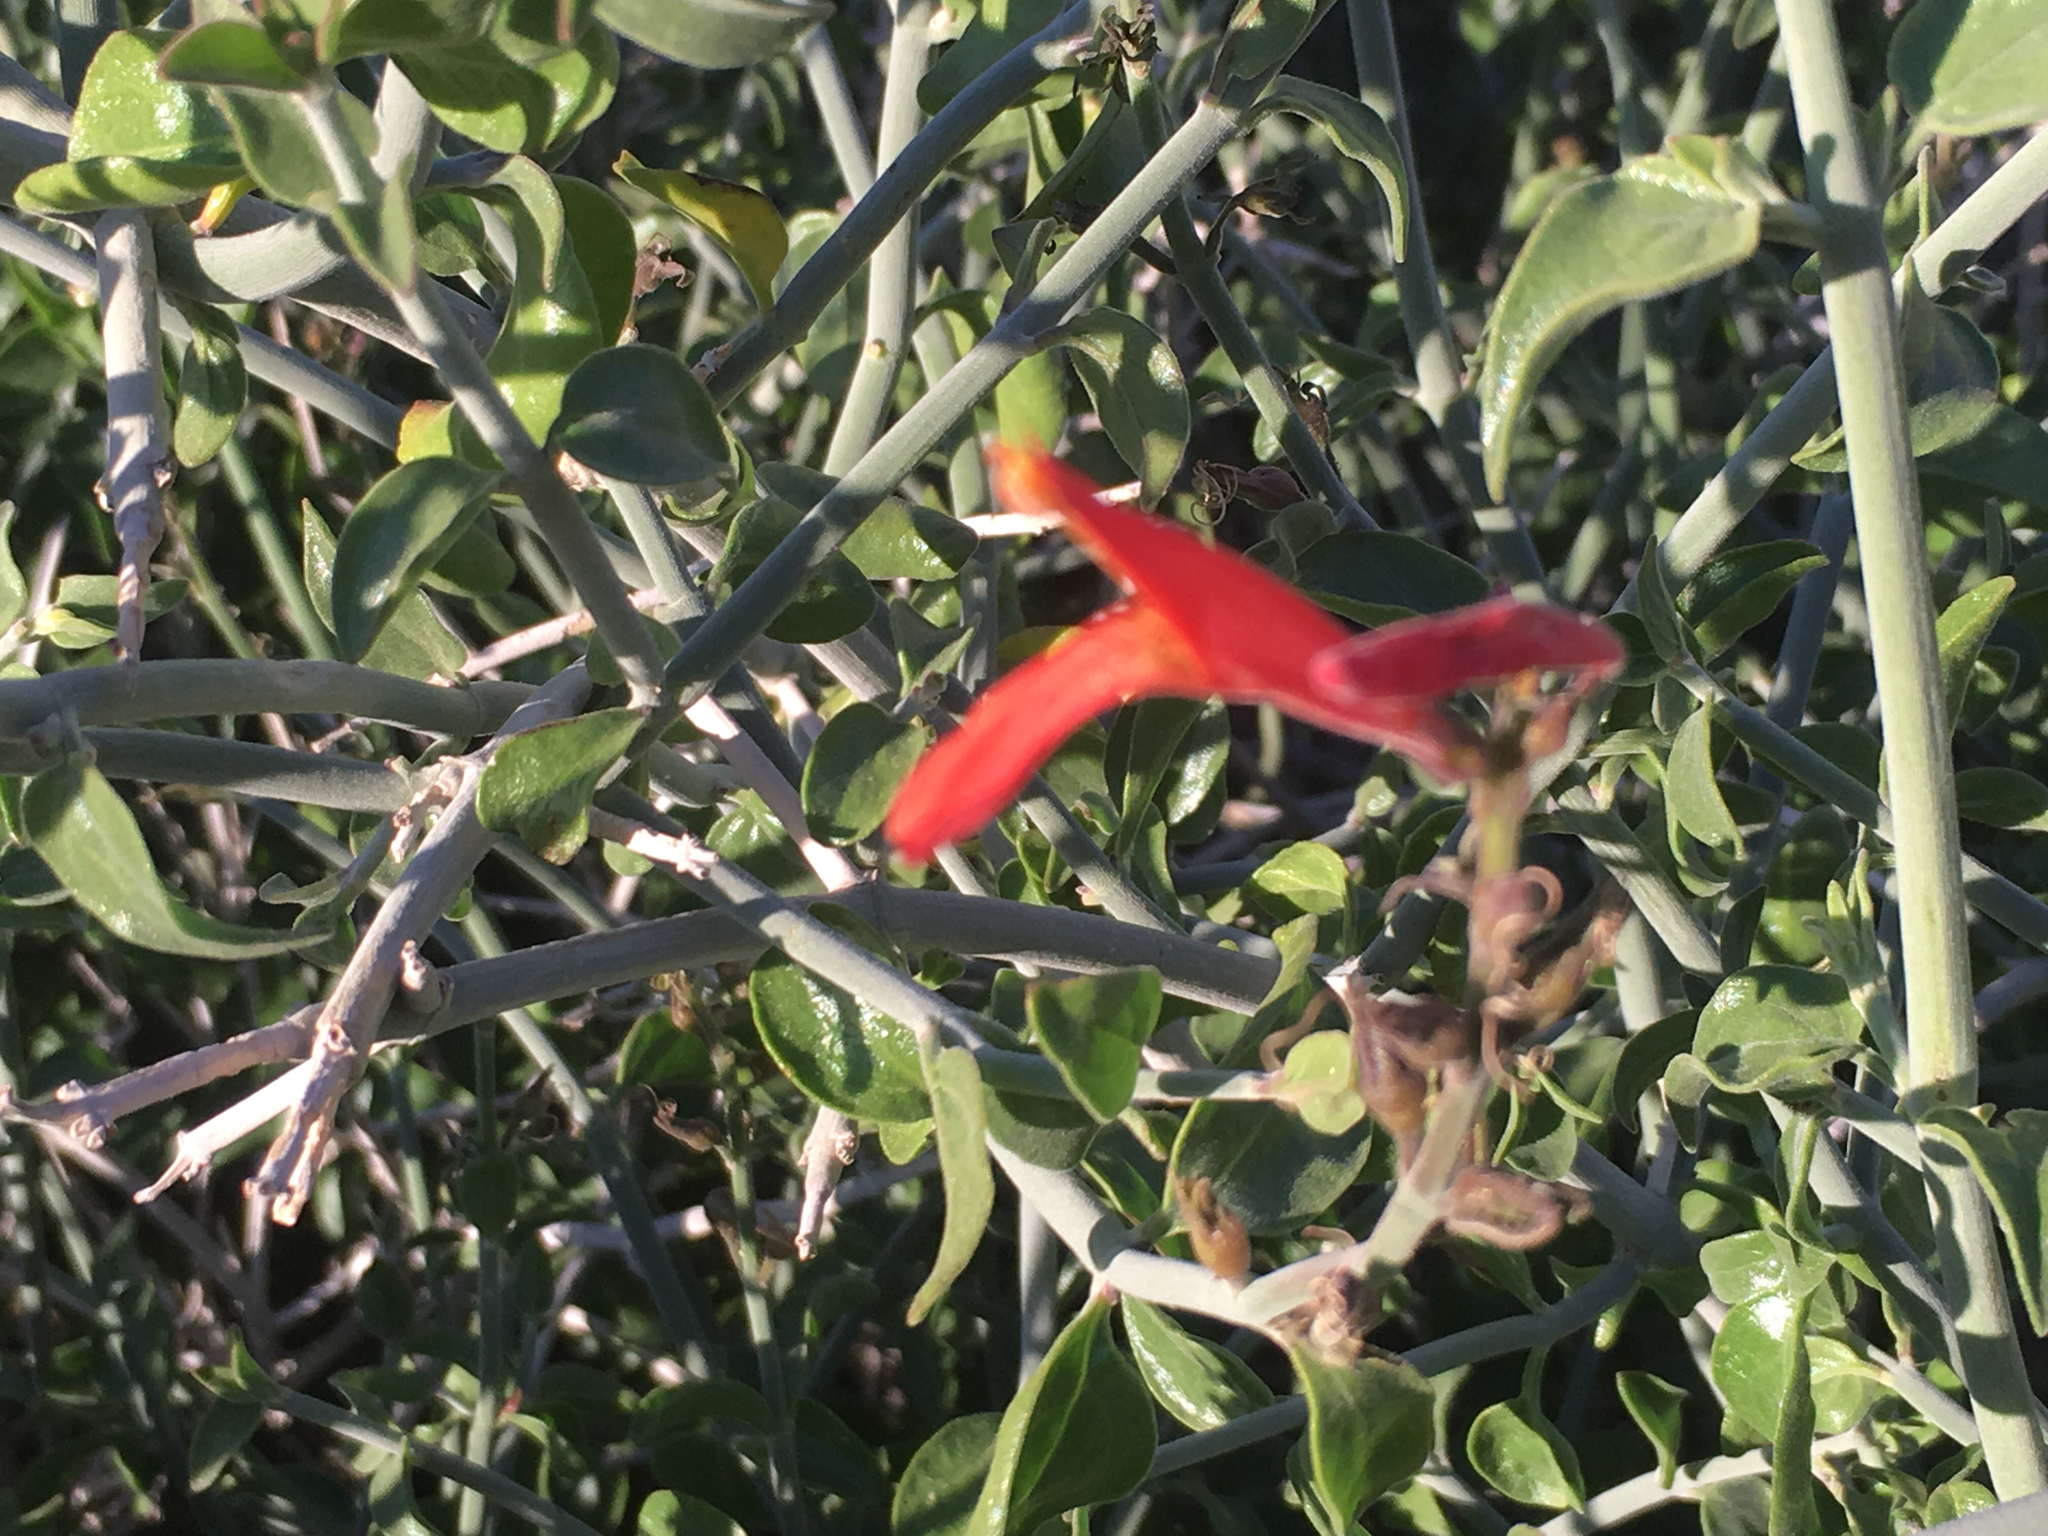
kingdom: Plantae
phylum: Tracheophyta
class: Magnoliopsida
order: Lamiales
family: Acanthaceae
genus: Justicia
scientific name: Justicia californica
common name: Chuparosa-honeysuckle
